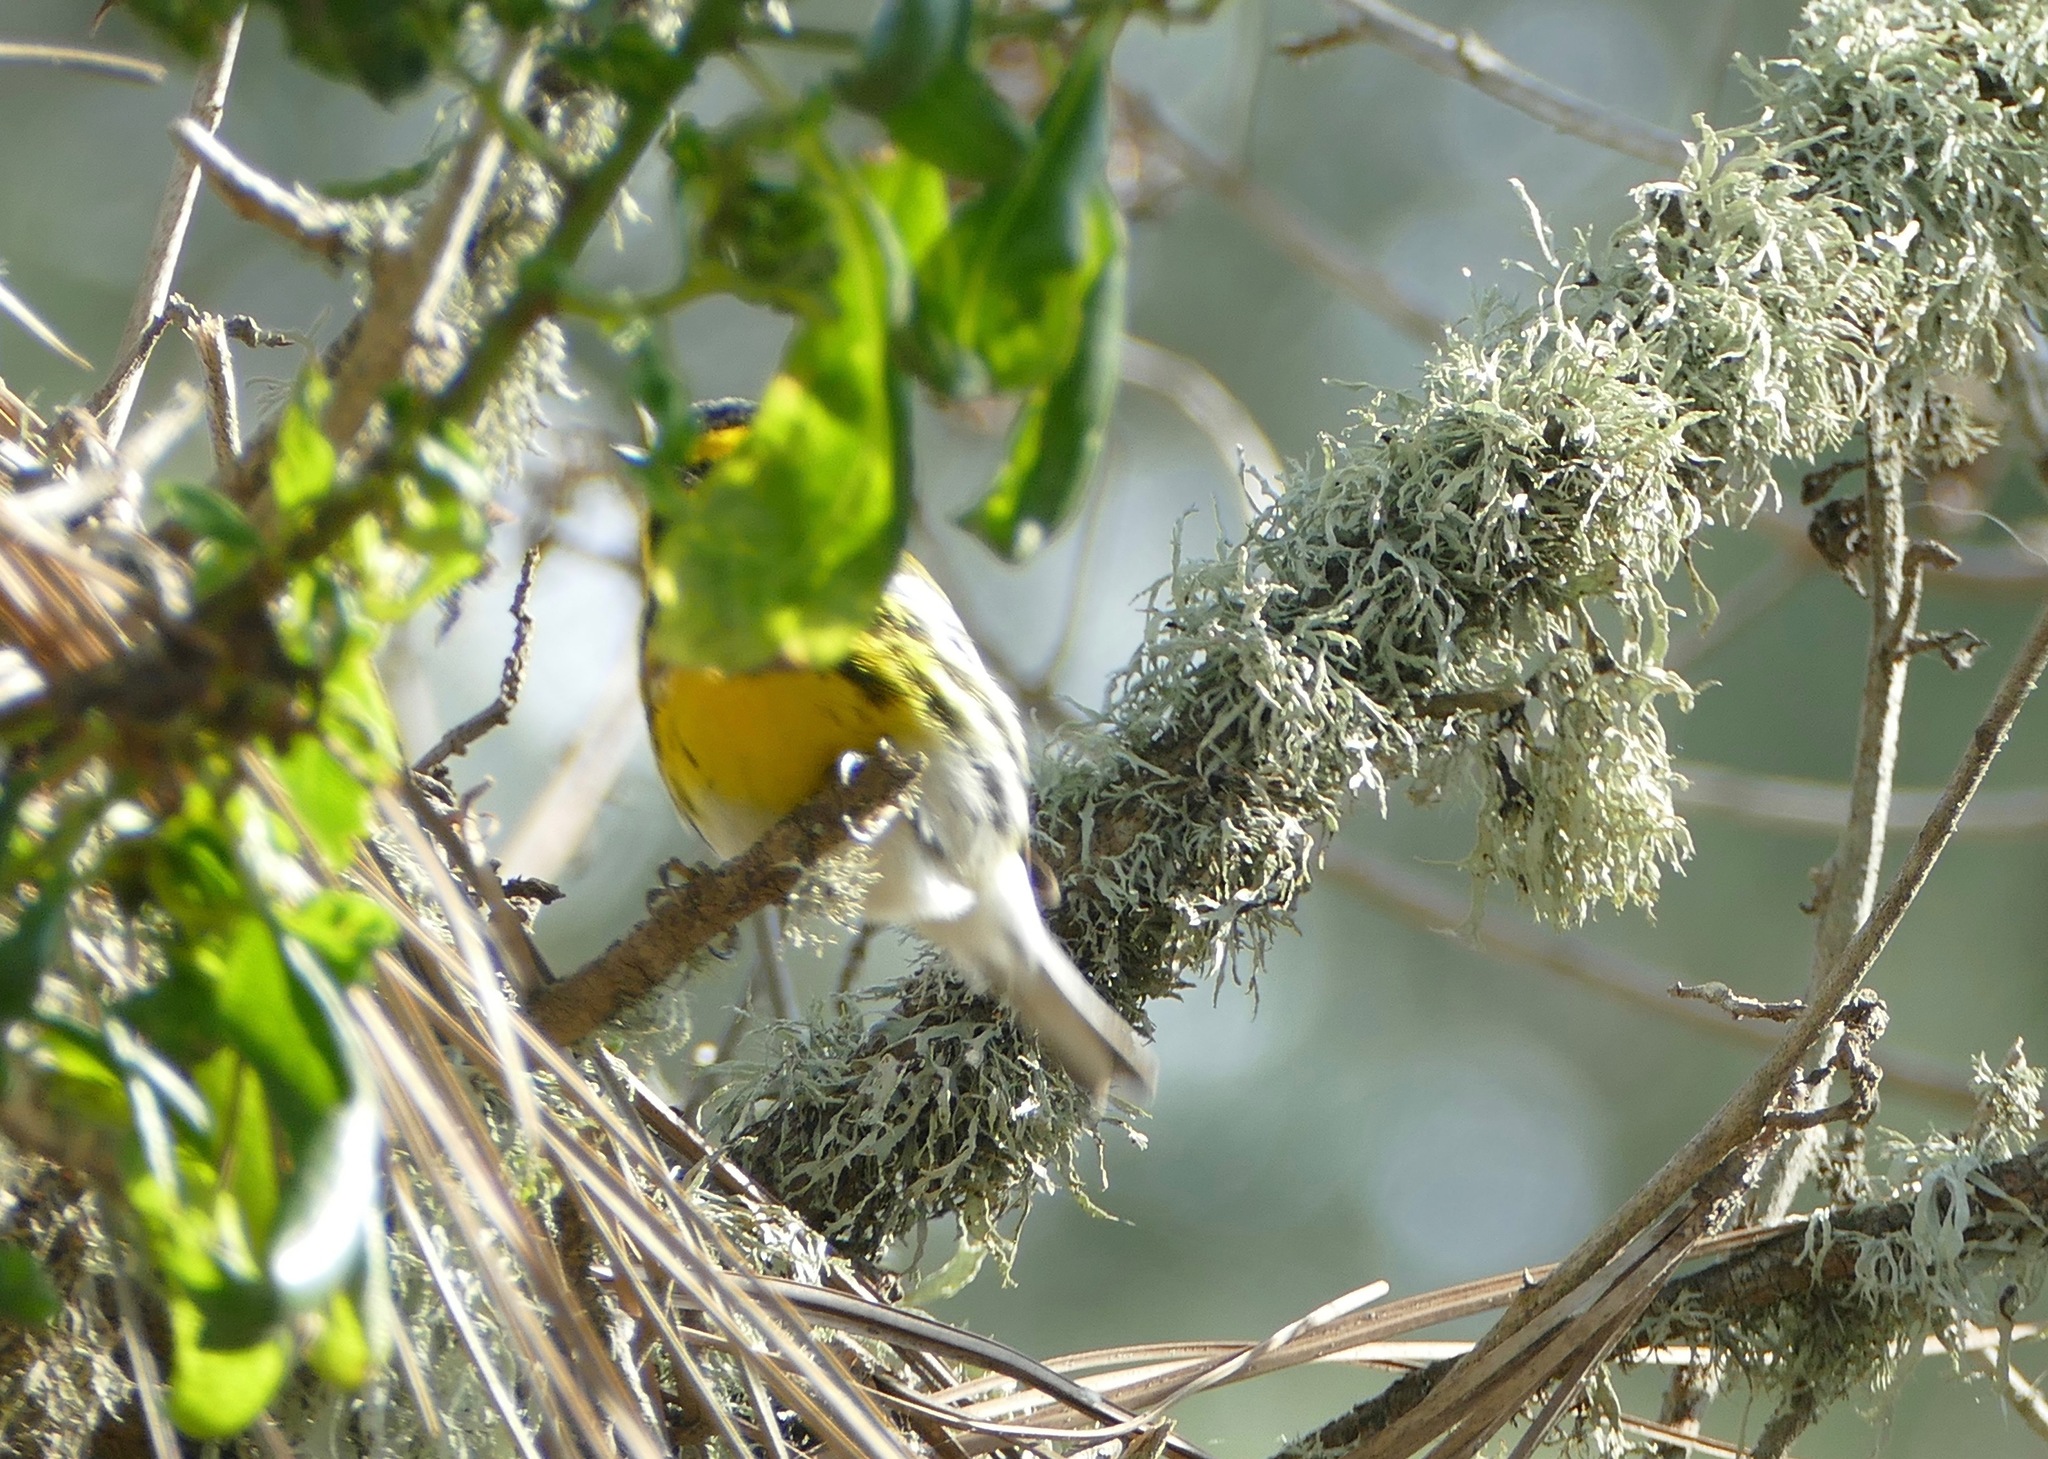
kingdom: Animalia
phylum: Chordata
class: Aves
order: Passeriformes
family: Parulidae
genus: Setophaga
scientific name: Setophaga townsendi
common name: Townsend's warbler
